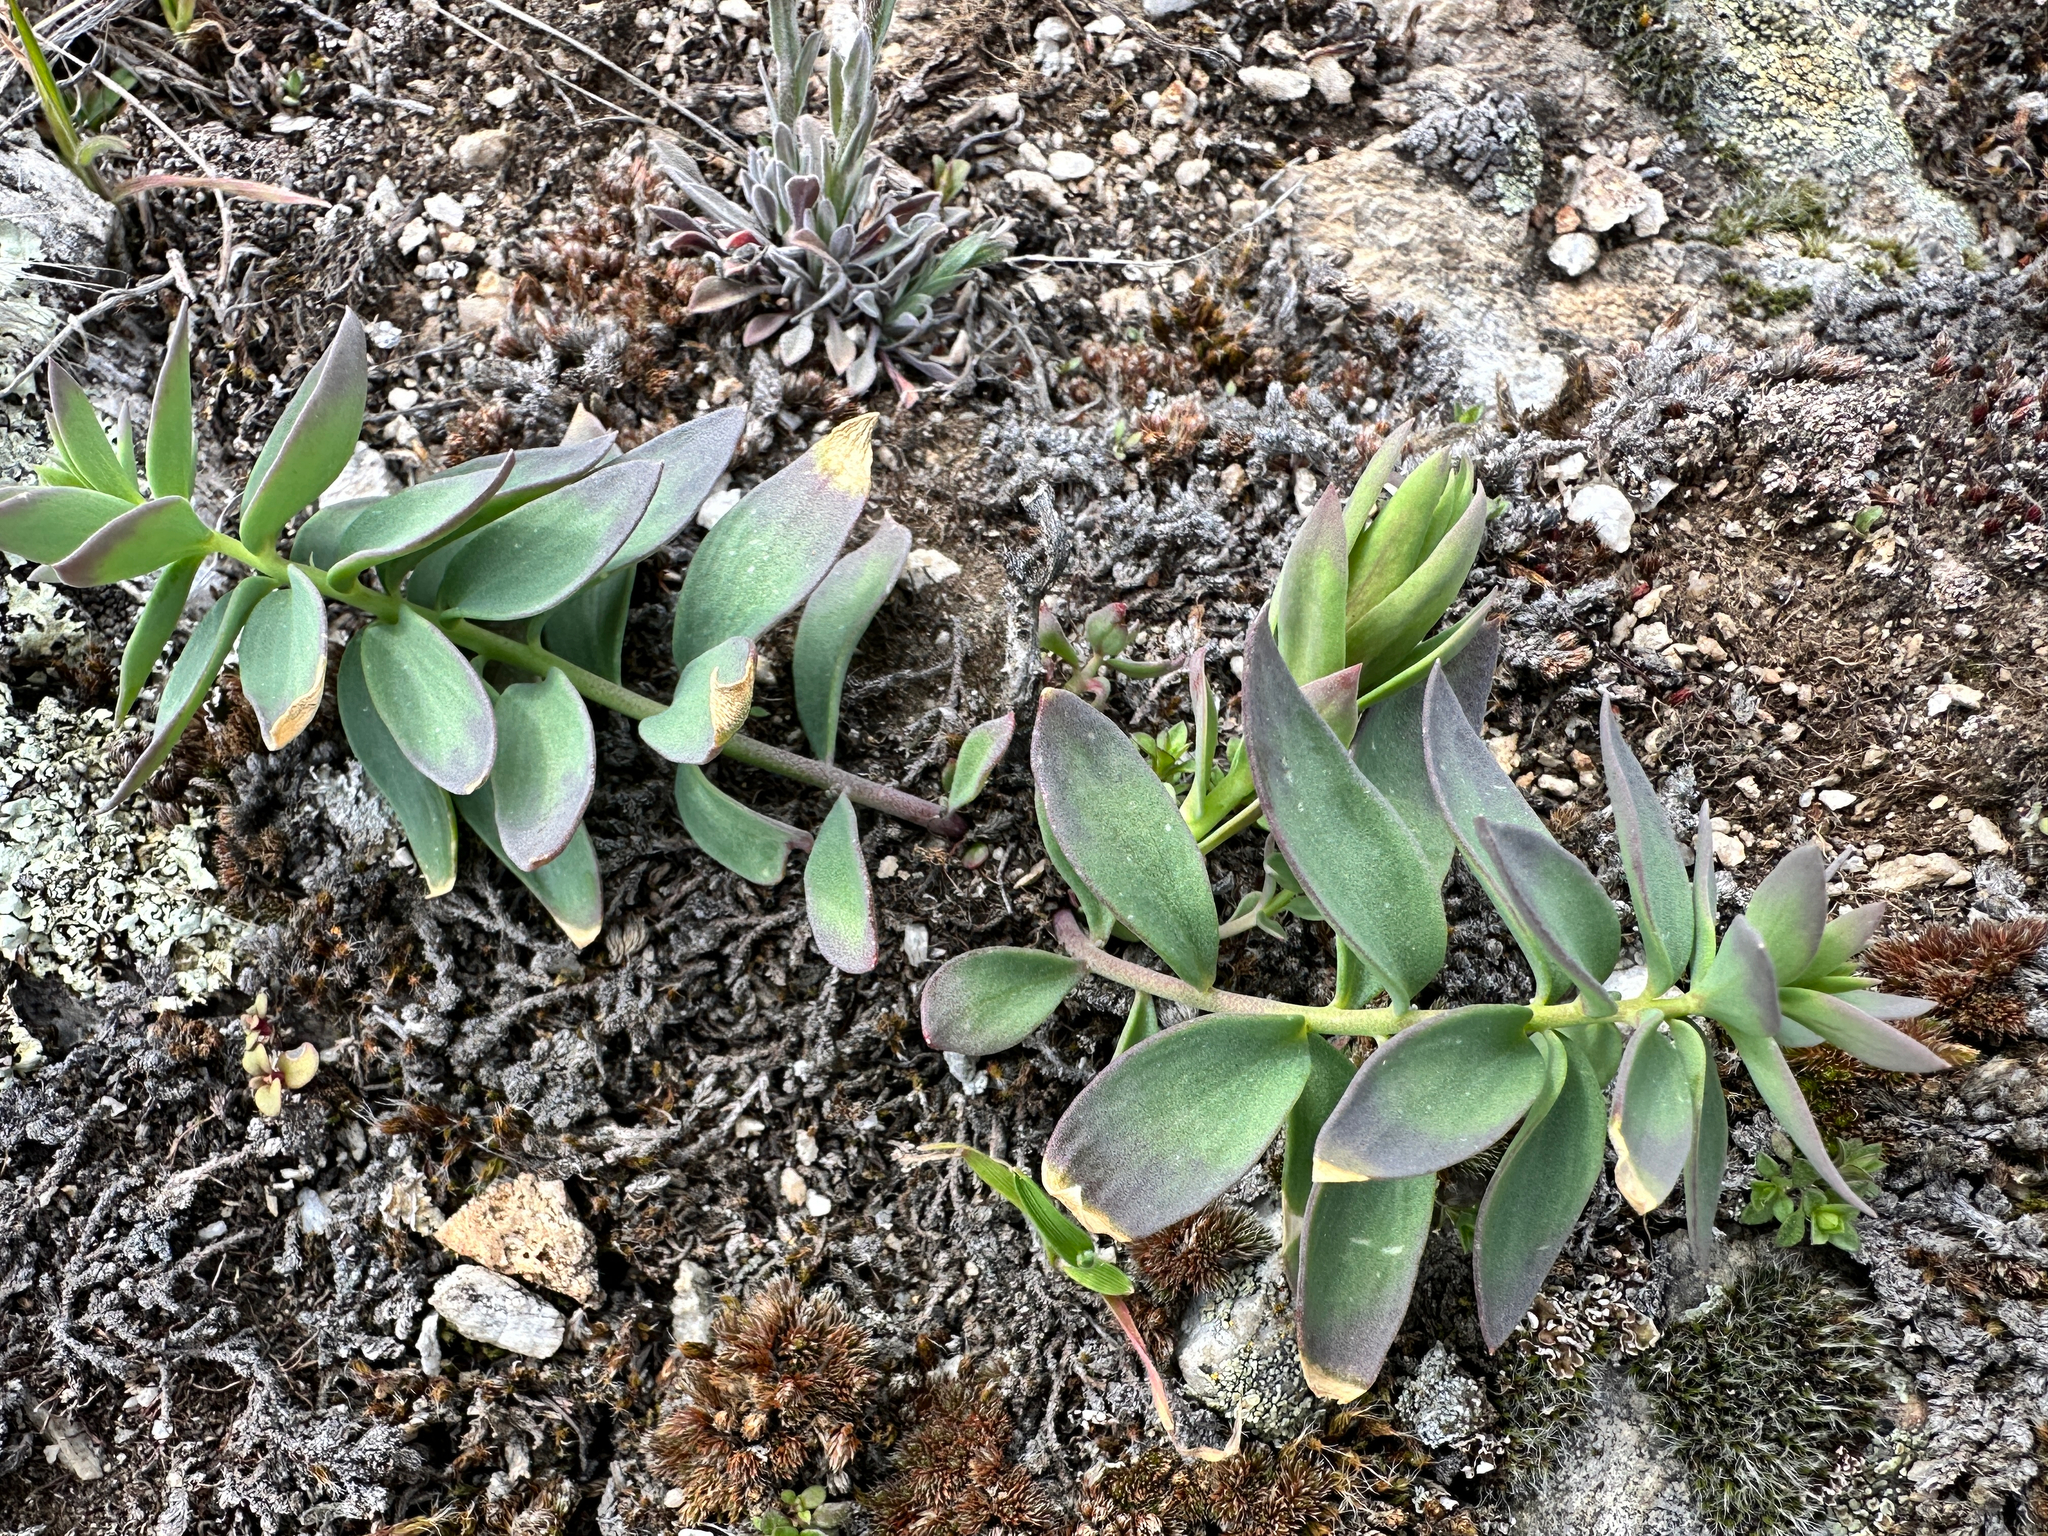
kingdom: Plantae
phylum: Tracheophyta
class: Magnoliopsida
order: Lamiales
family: Plantaginaceae
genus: Linaria
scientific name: Linaria dalmatica
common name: Dalmatian toadflax
